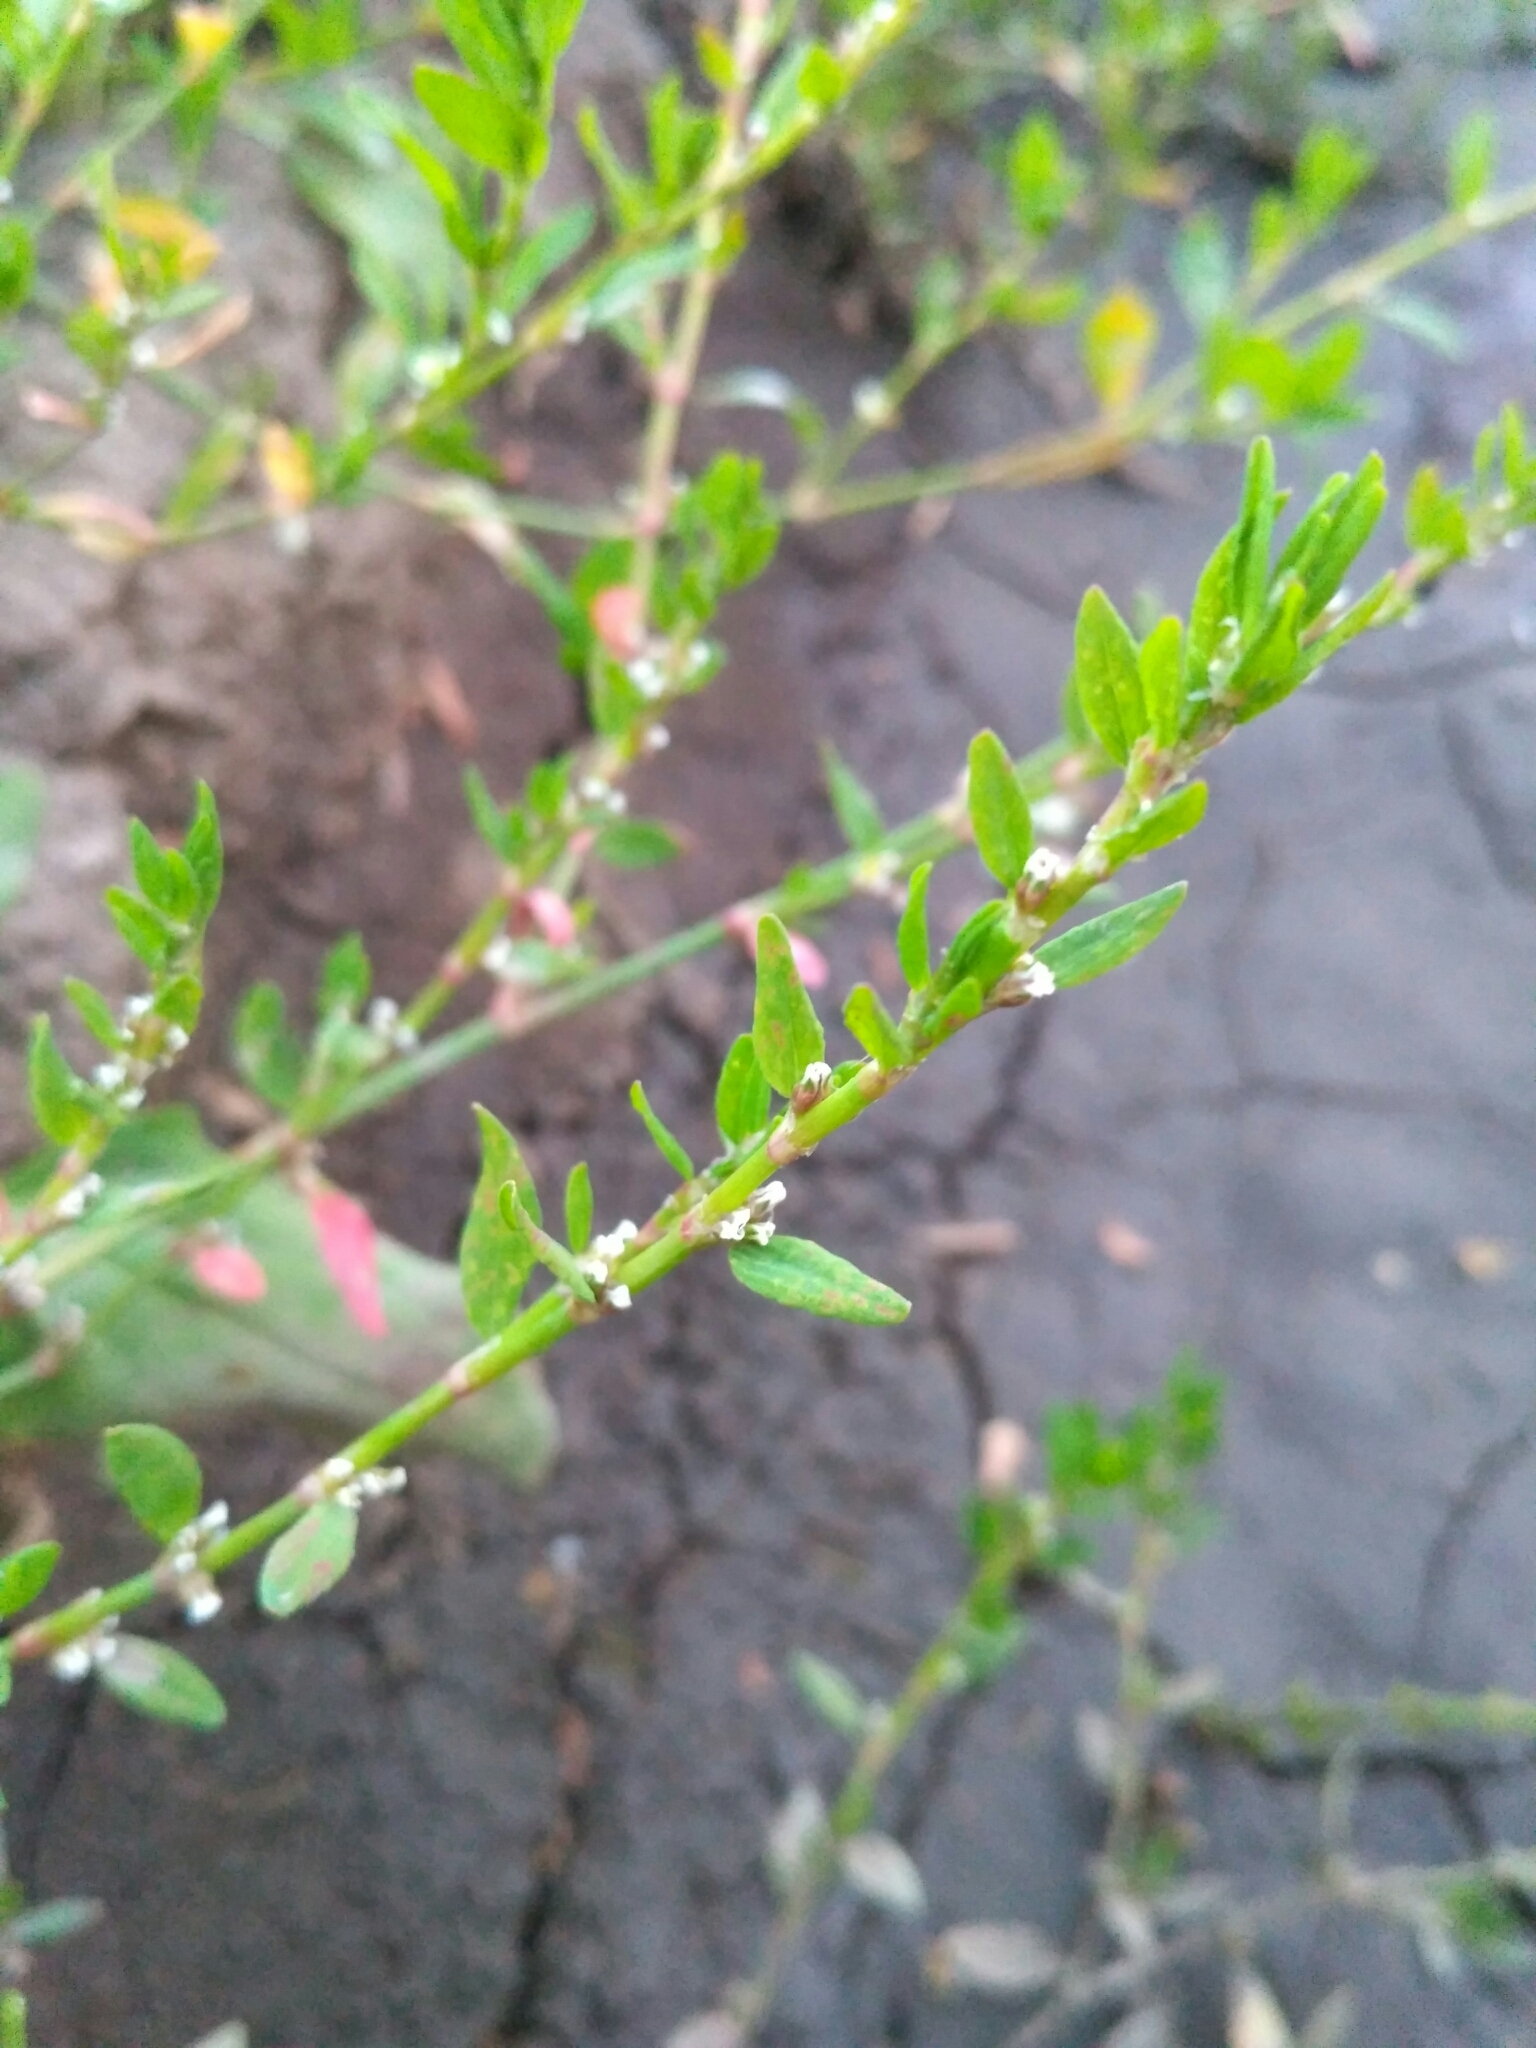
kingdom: Plantae
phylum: Tracheophyta
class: Magnoliopsida
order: Caryophyllales
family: Polygonaceae
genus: Polygonum
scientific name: Polygonum
